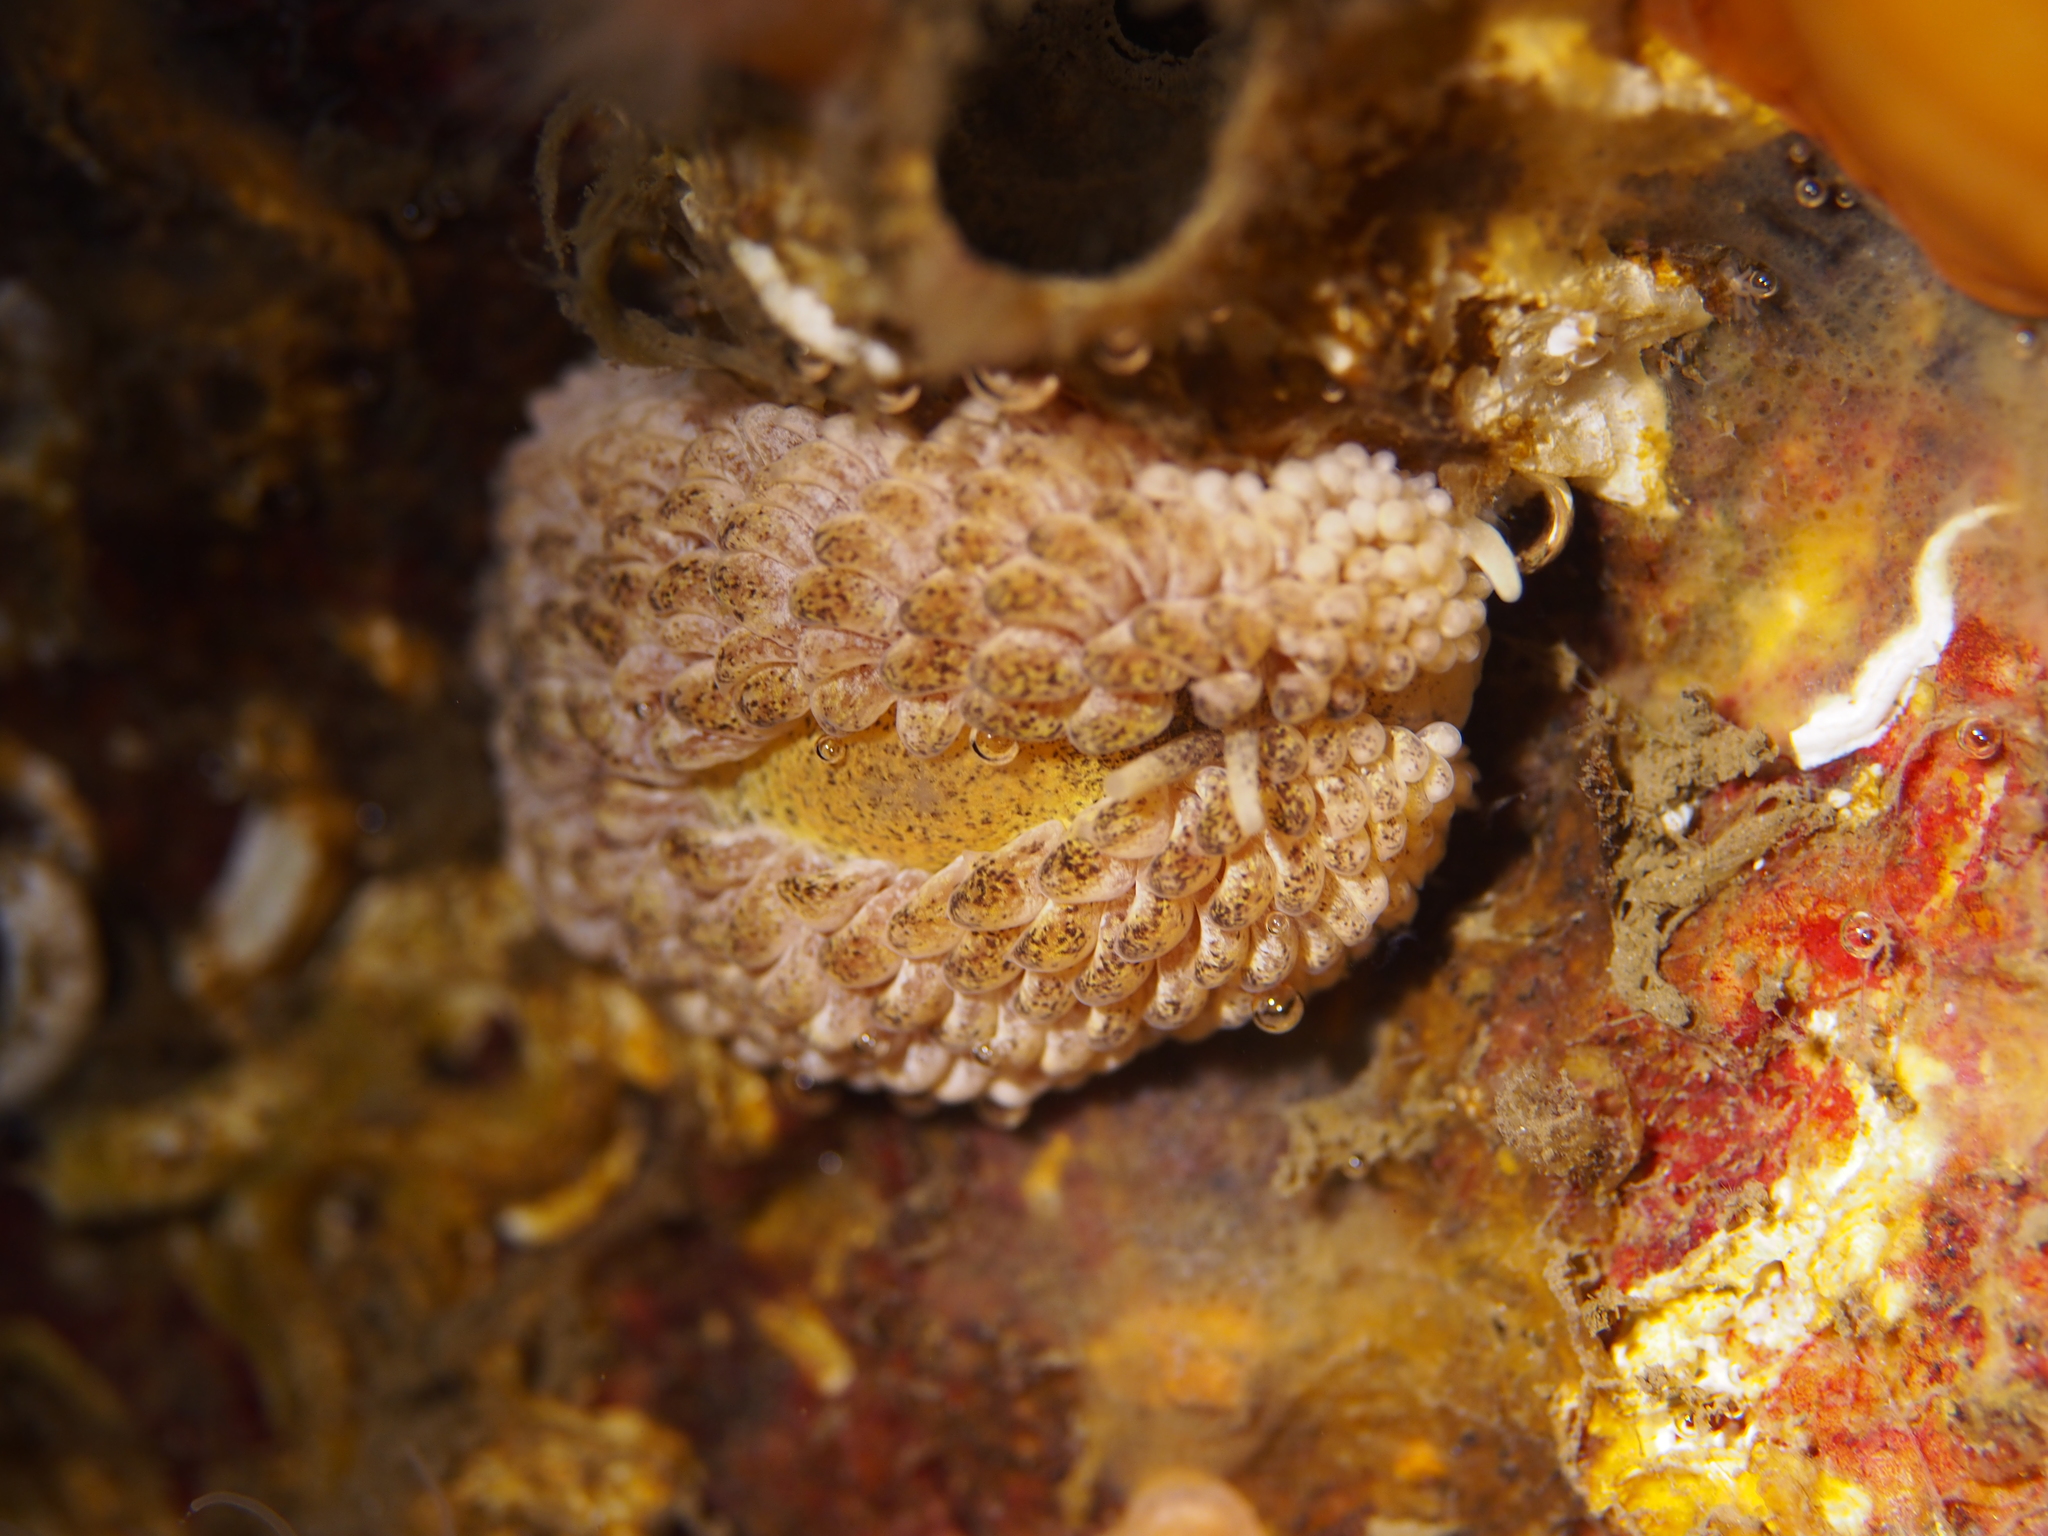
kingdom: Animalia
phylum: Mollusca
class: Gastropoda
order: Nudibranchia
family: Aeolidiidae
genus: Aeolidia
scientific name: Aeolidia papillosa
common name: Common grey sea slug
